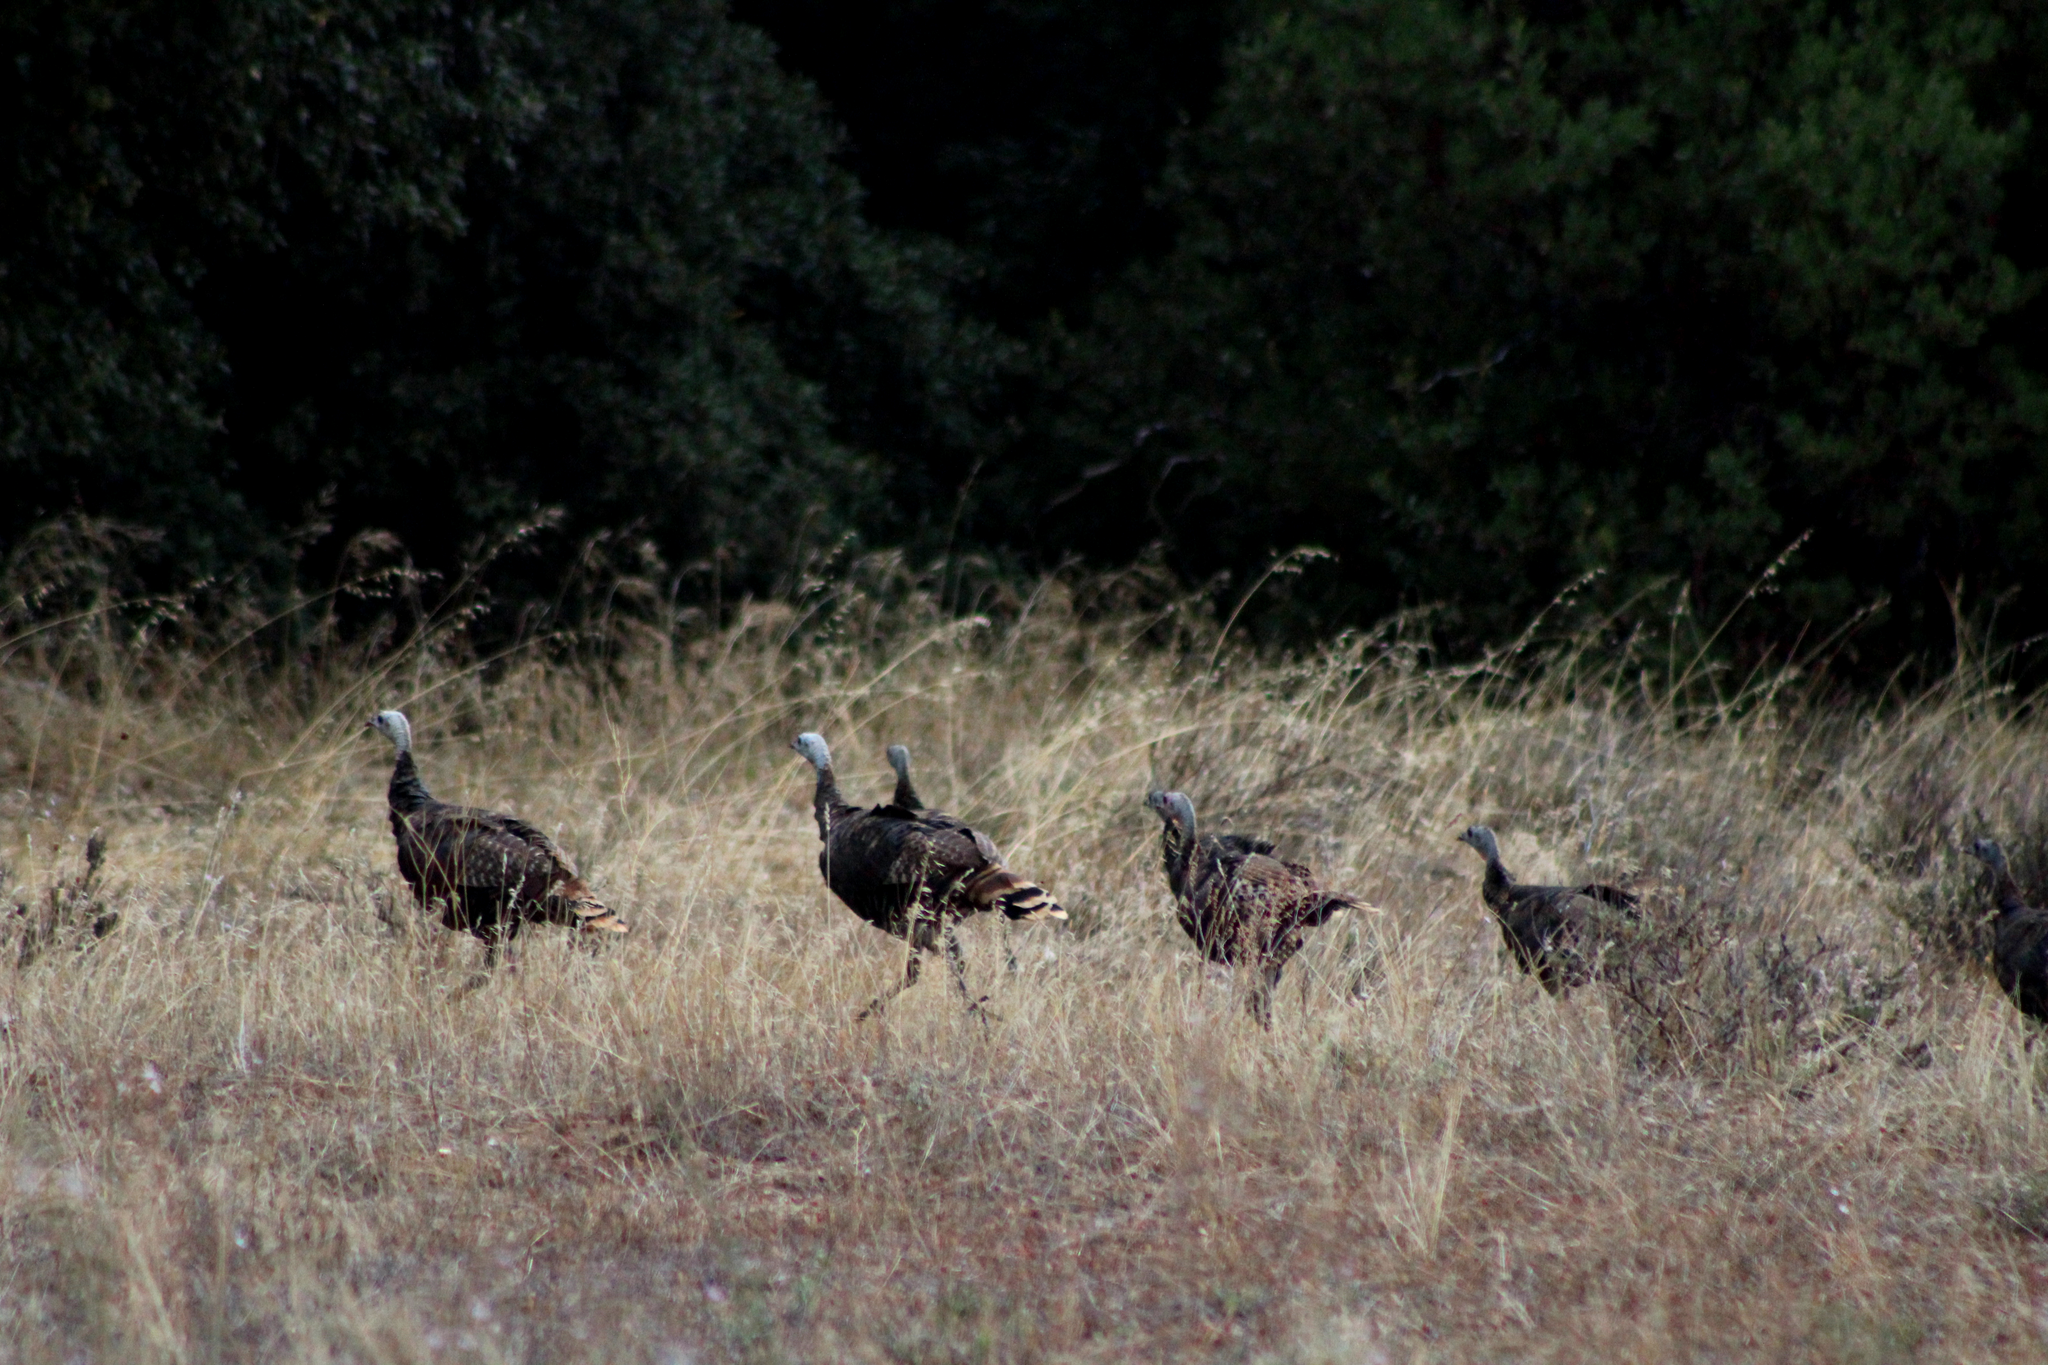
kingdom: Animalia
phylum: Chordata
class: Aves
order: Galliformes
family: Phasianidae
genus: Meleagris
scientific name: Meleagris gallopavo
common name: Wild turkey
